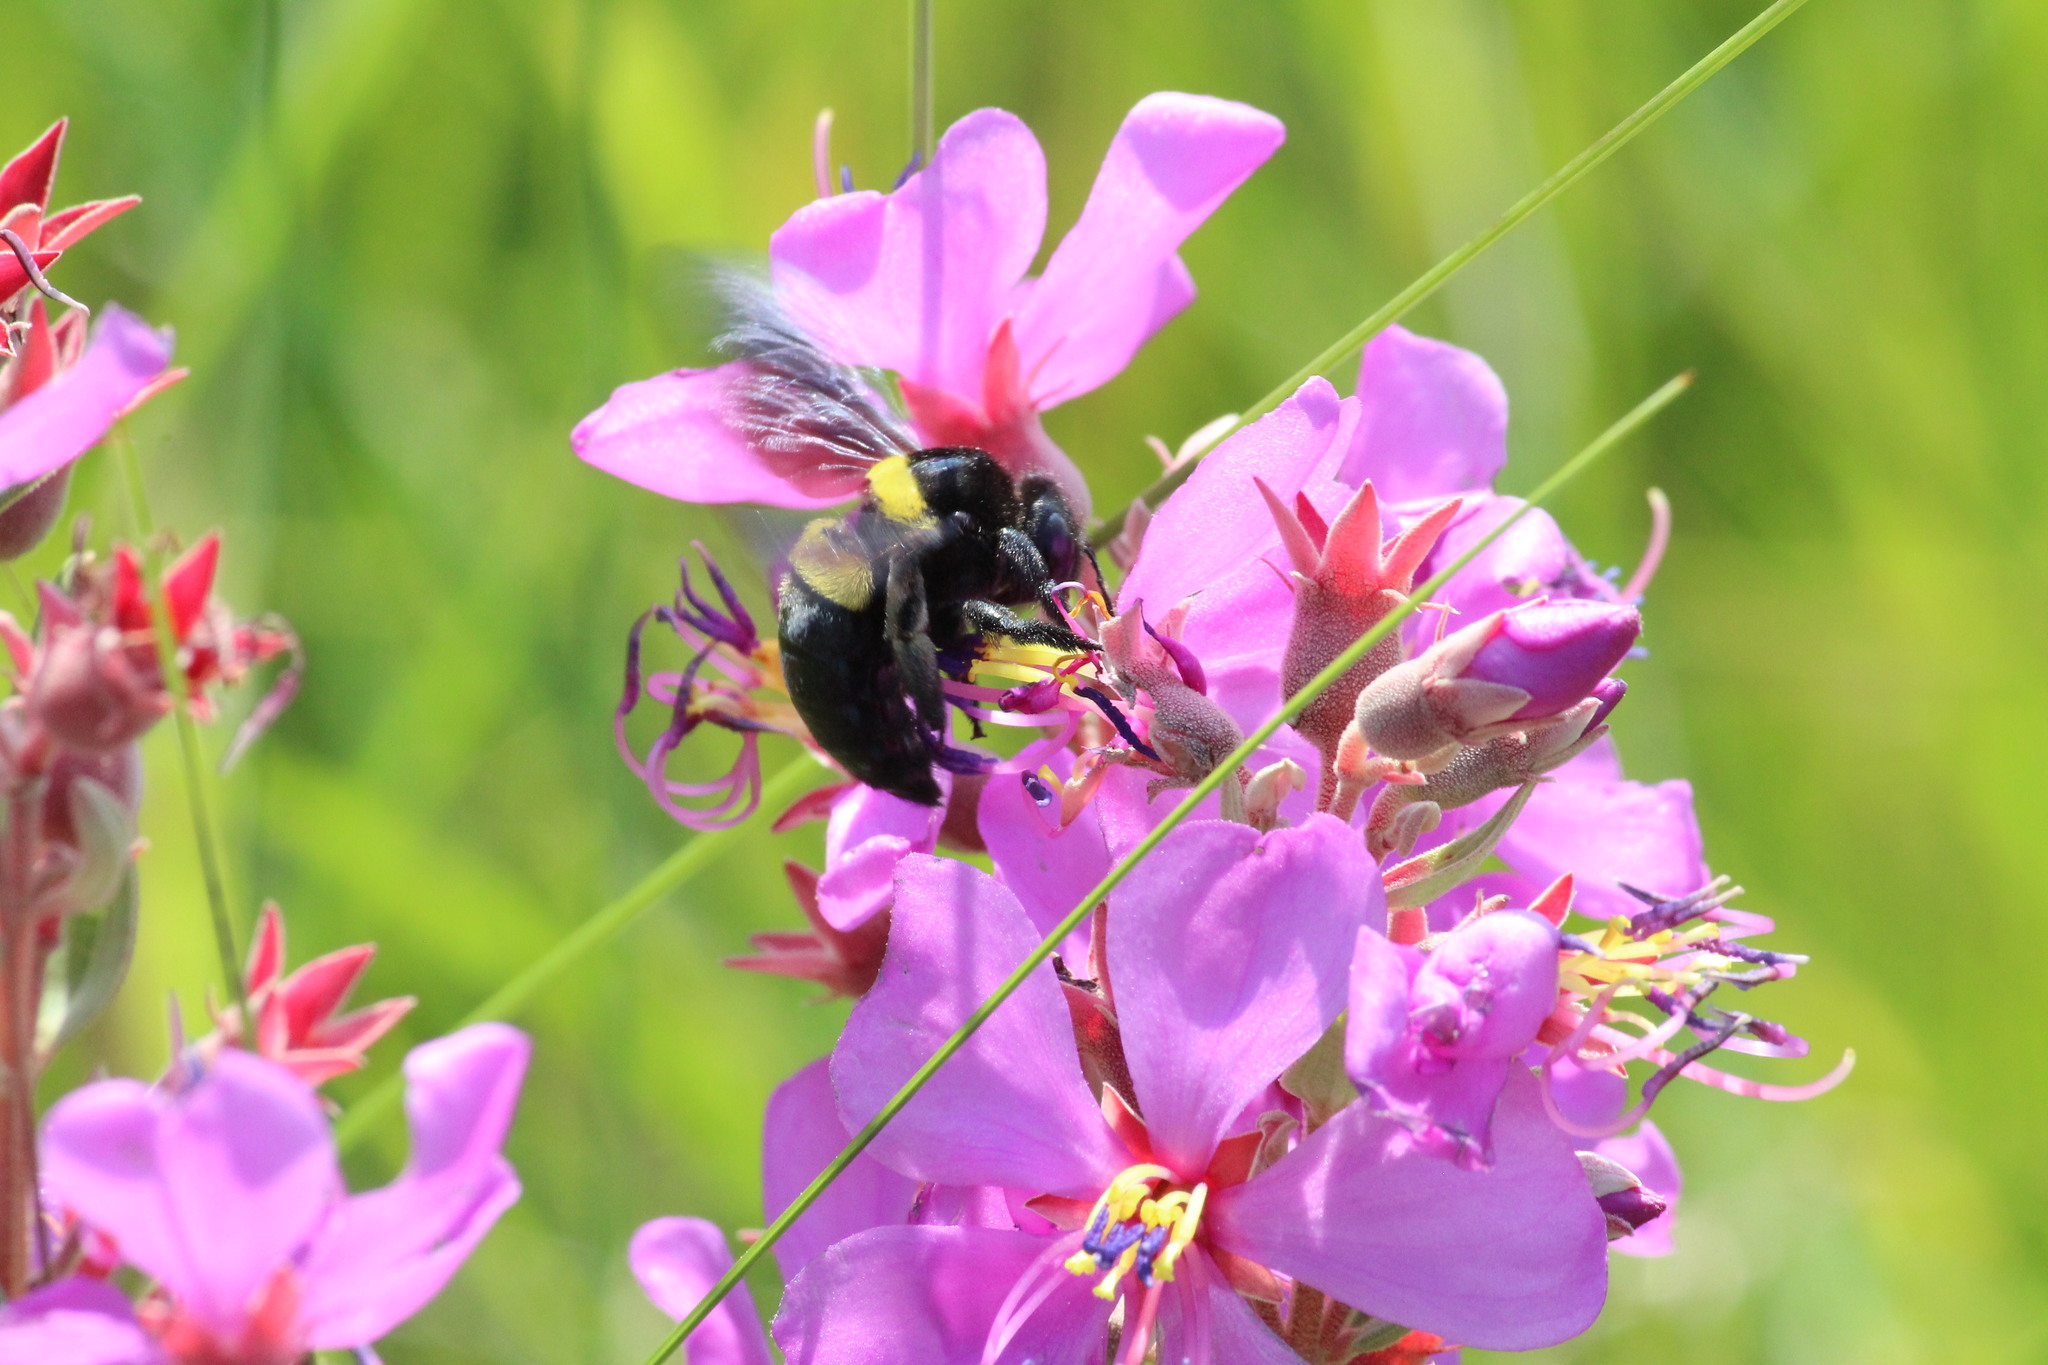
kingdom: Animalia
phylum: Arthropoda
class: Insecta
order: Hymenoptera
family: Apidae
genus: Xylocopa
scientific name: Xylocopa caffra
